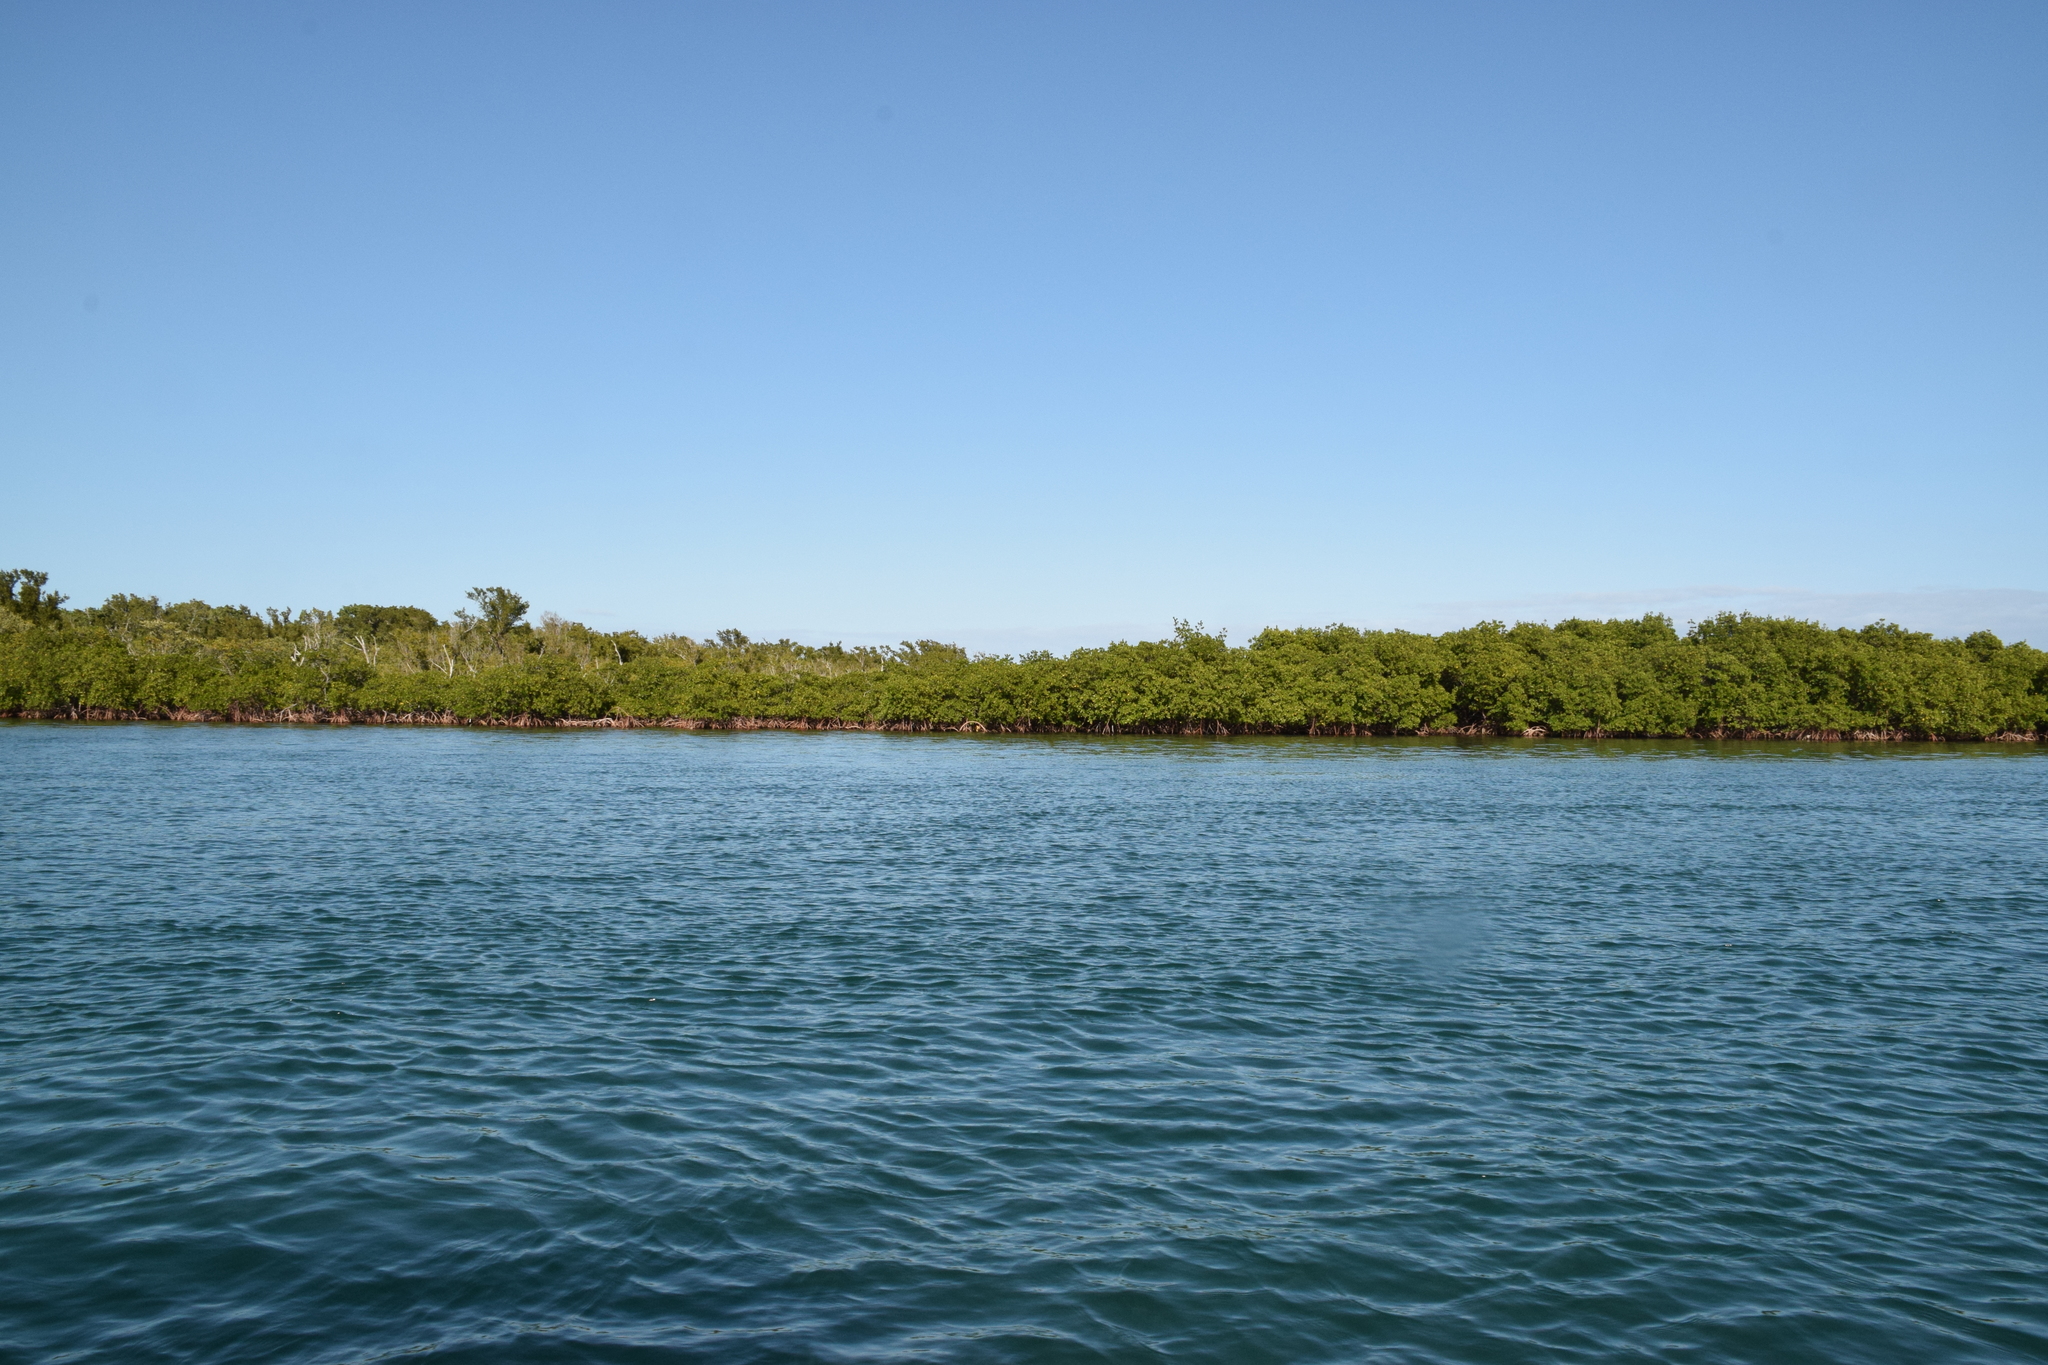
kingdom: Plantae
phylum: Tracheophyta
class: Magnoliopsida
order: Malpighiales
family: Rhizophoraceae
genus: Rhizophora
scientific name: Rhizophora mangle
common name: Red mangrove
